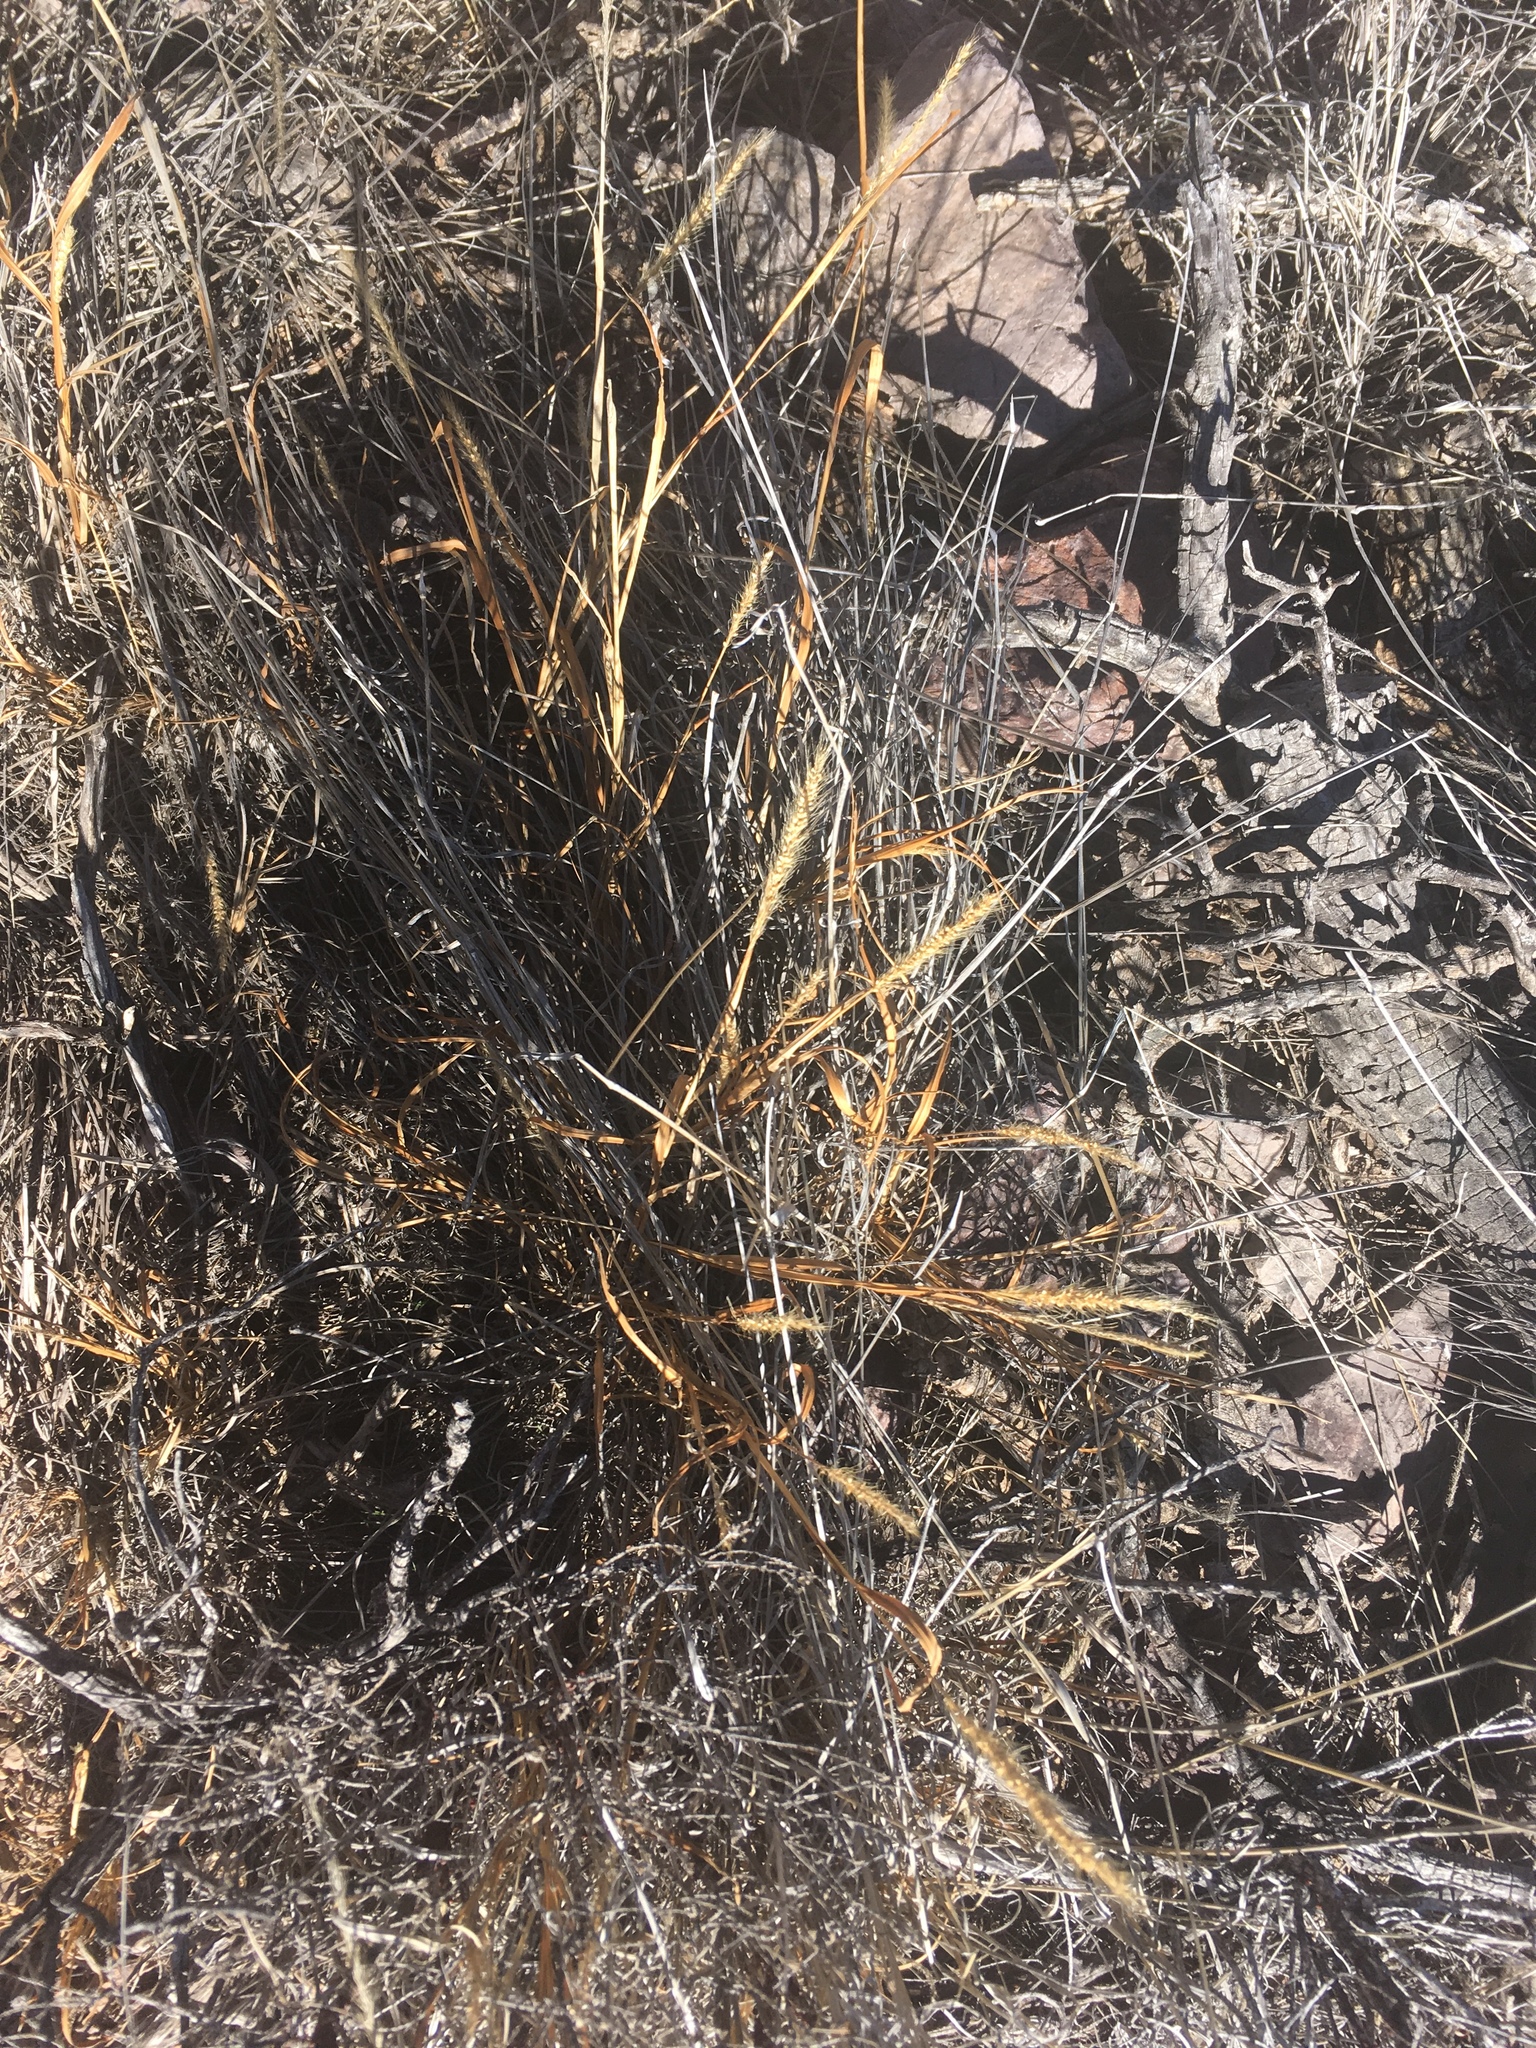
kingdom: Plantae
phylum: Tracheophyta
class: Liliopsida
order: Poales
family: Poaceae
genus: Setaria
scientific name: Setaria leucopila
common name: Plains bristle grass
